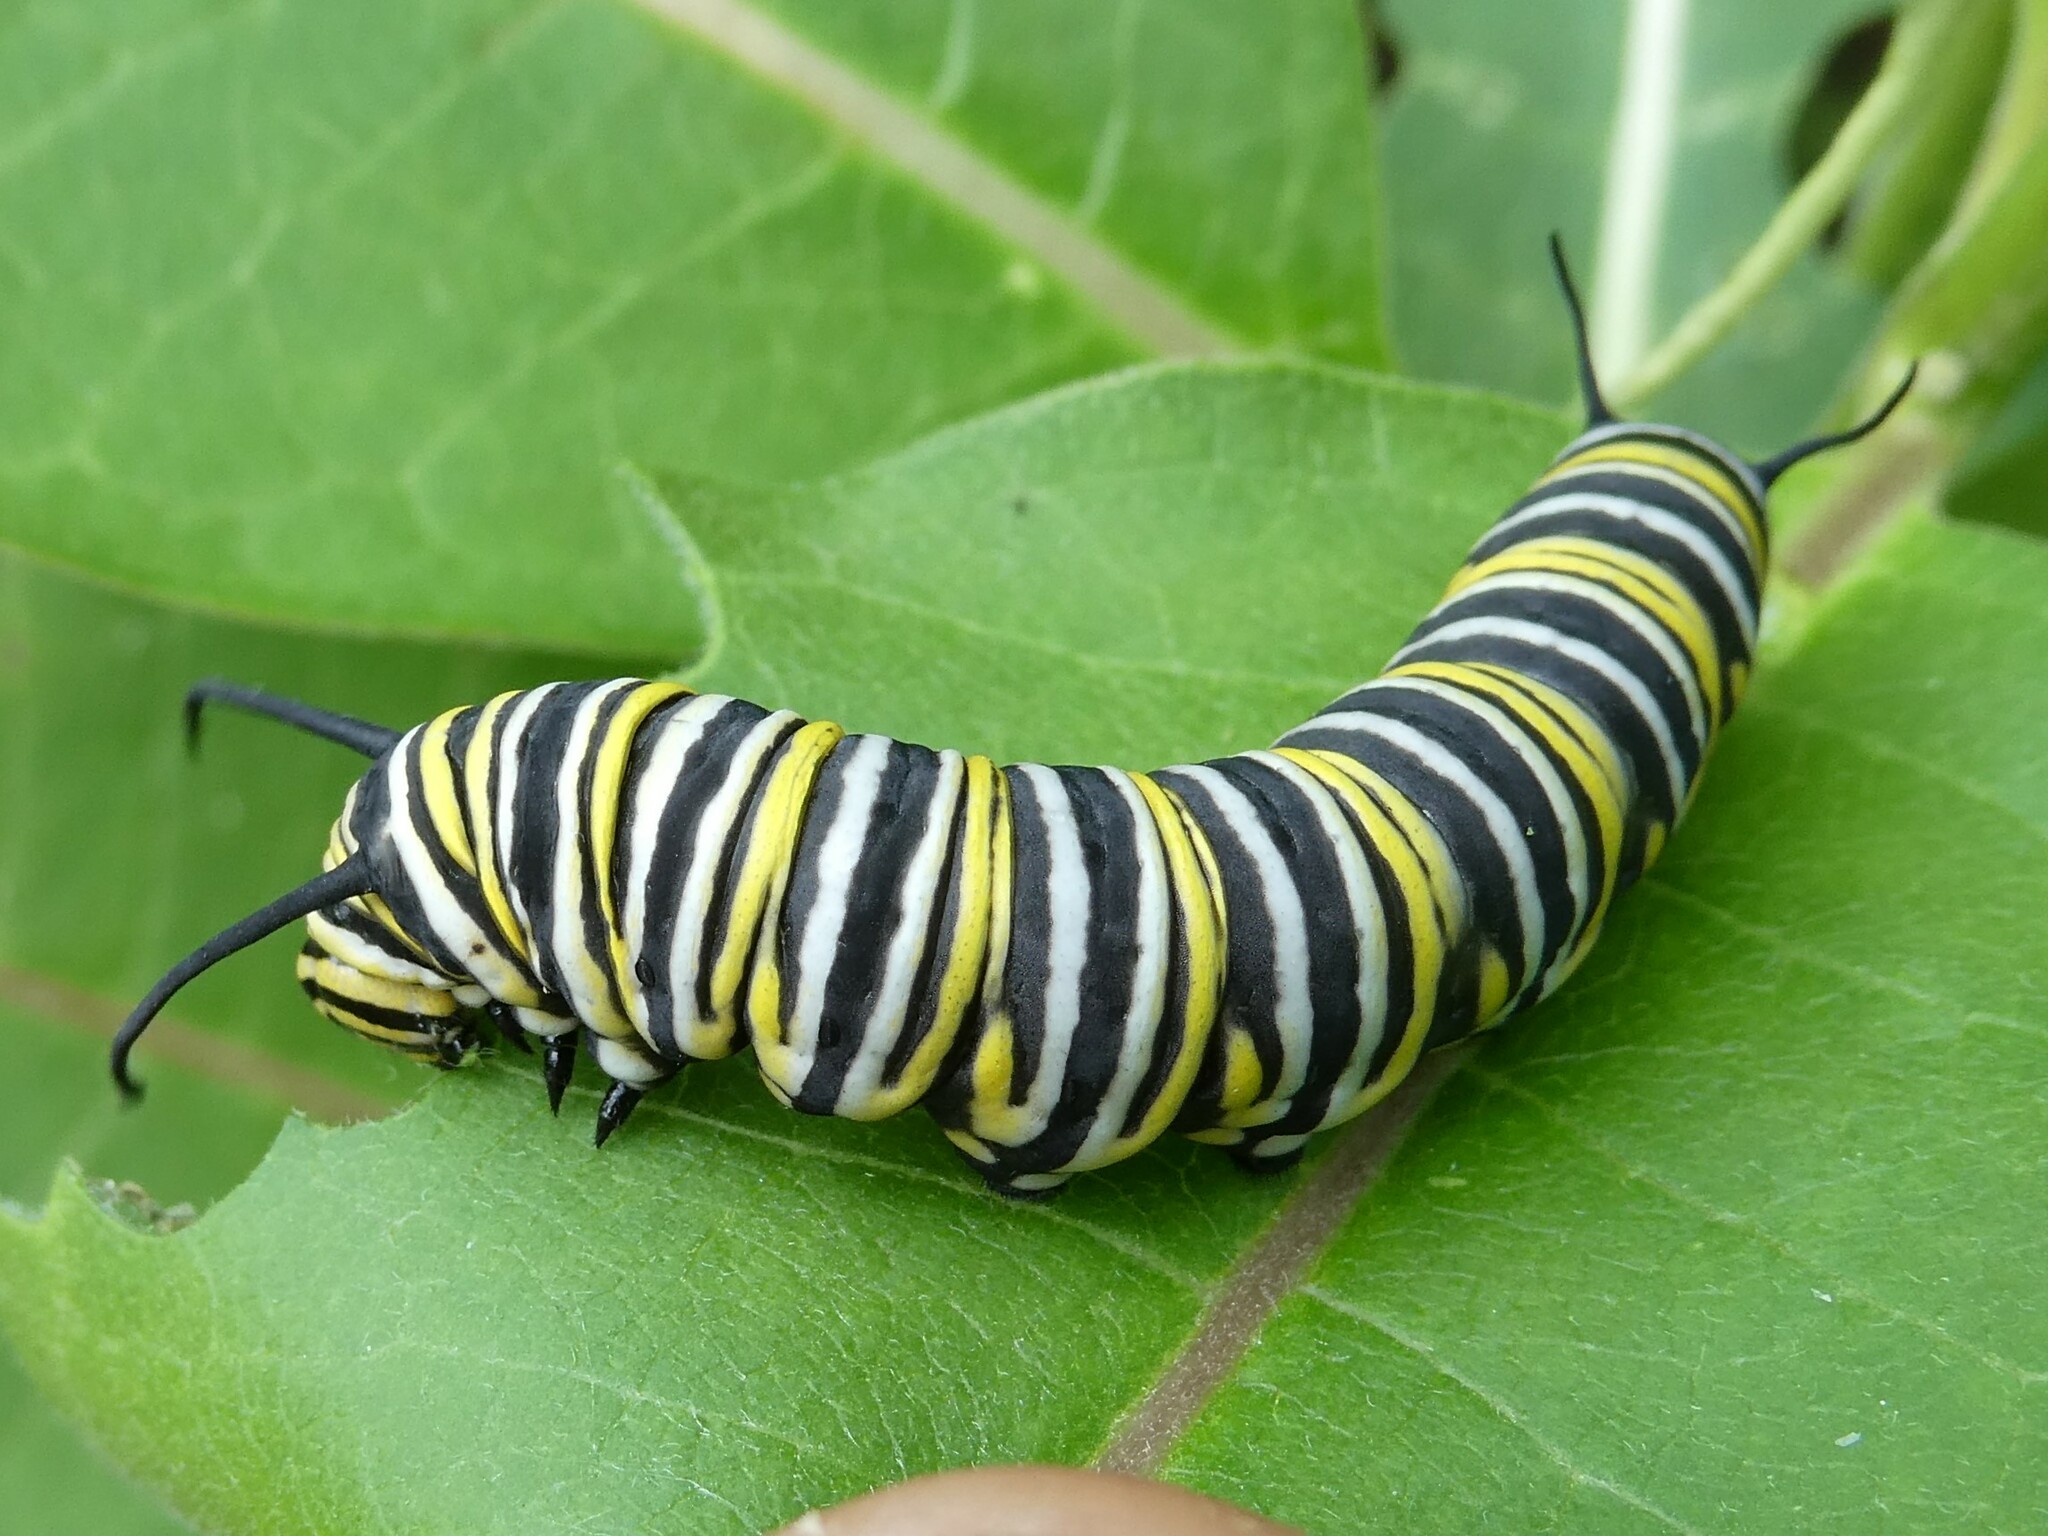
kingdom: Animalia
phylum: Arthropoda
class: Insecta
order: Lepidoptera
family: Nymphalidae
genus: Danaus
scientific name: Danaus plexippus
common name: Monarch
